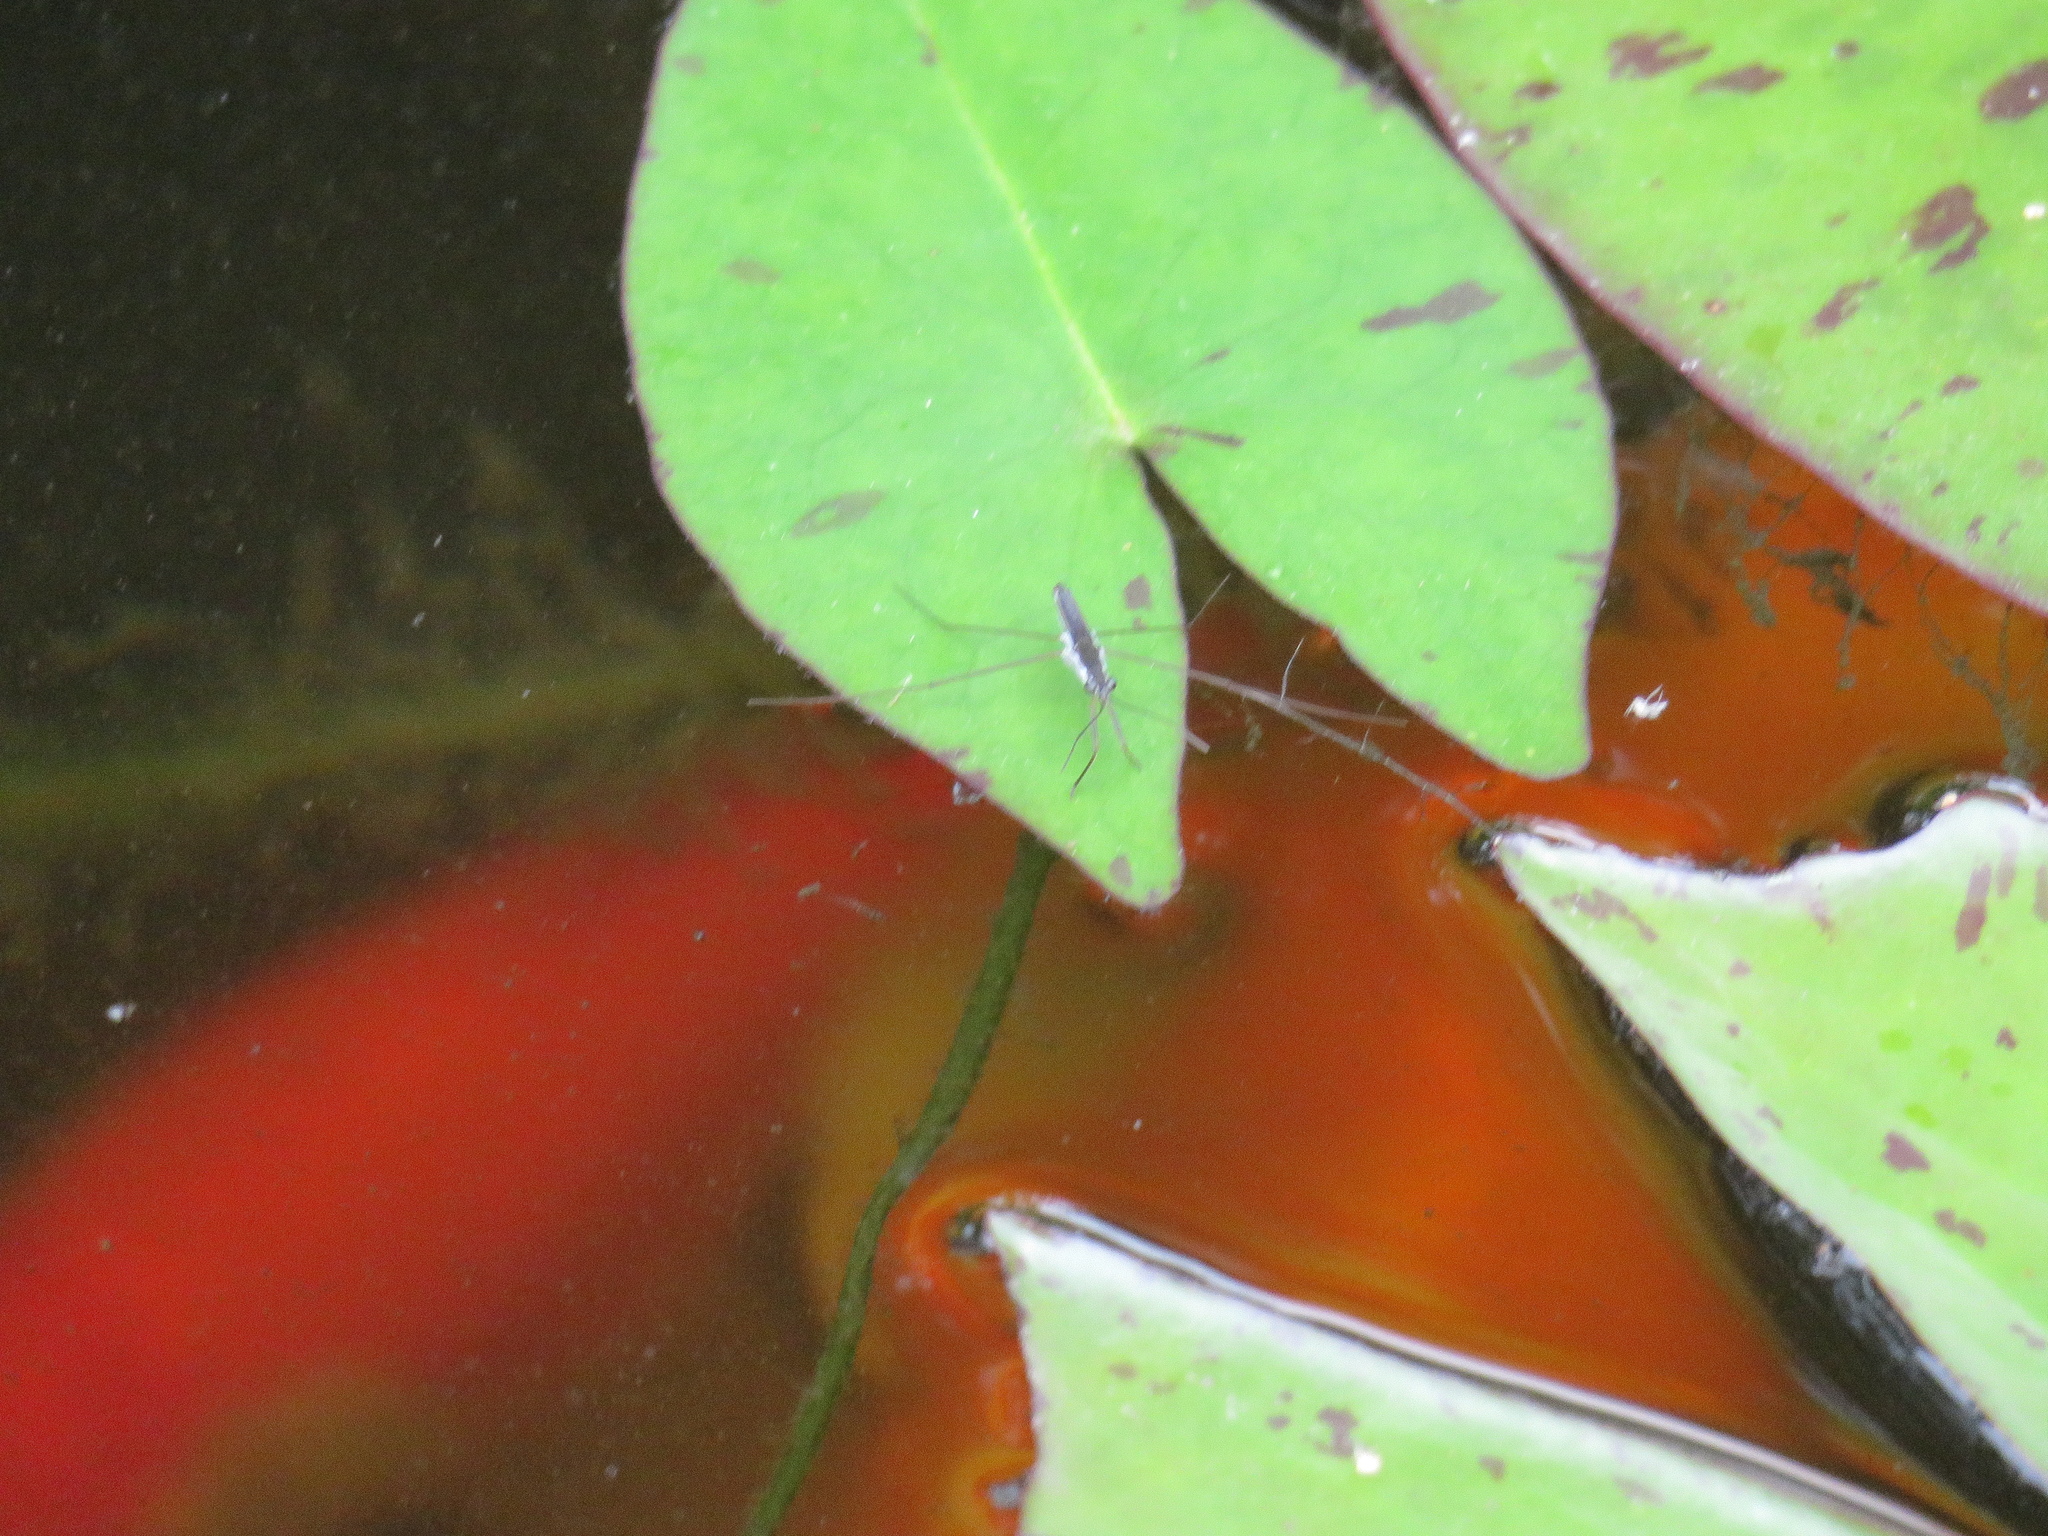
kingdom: Animalia
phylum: Arthropoda
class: Insecta
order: Hemiptera
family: Gerridae
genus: Limnoporus
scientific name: Limnoporus canaliculatus
